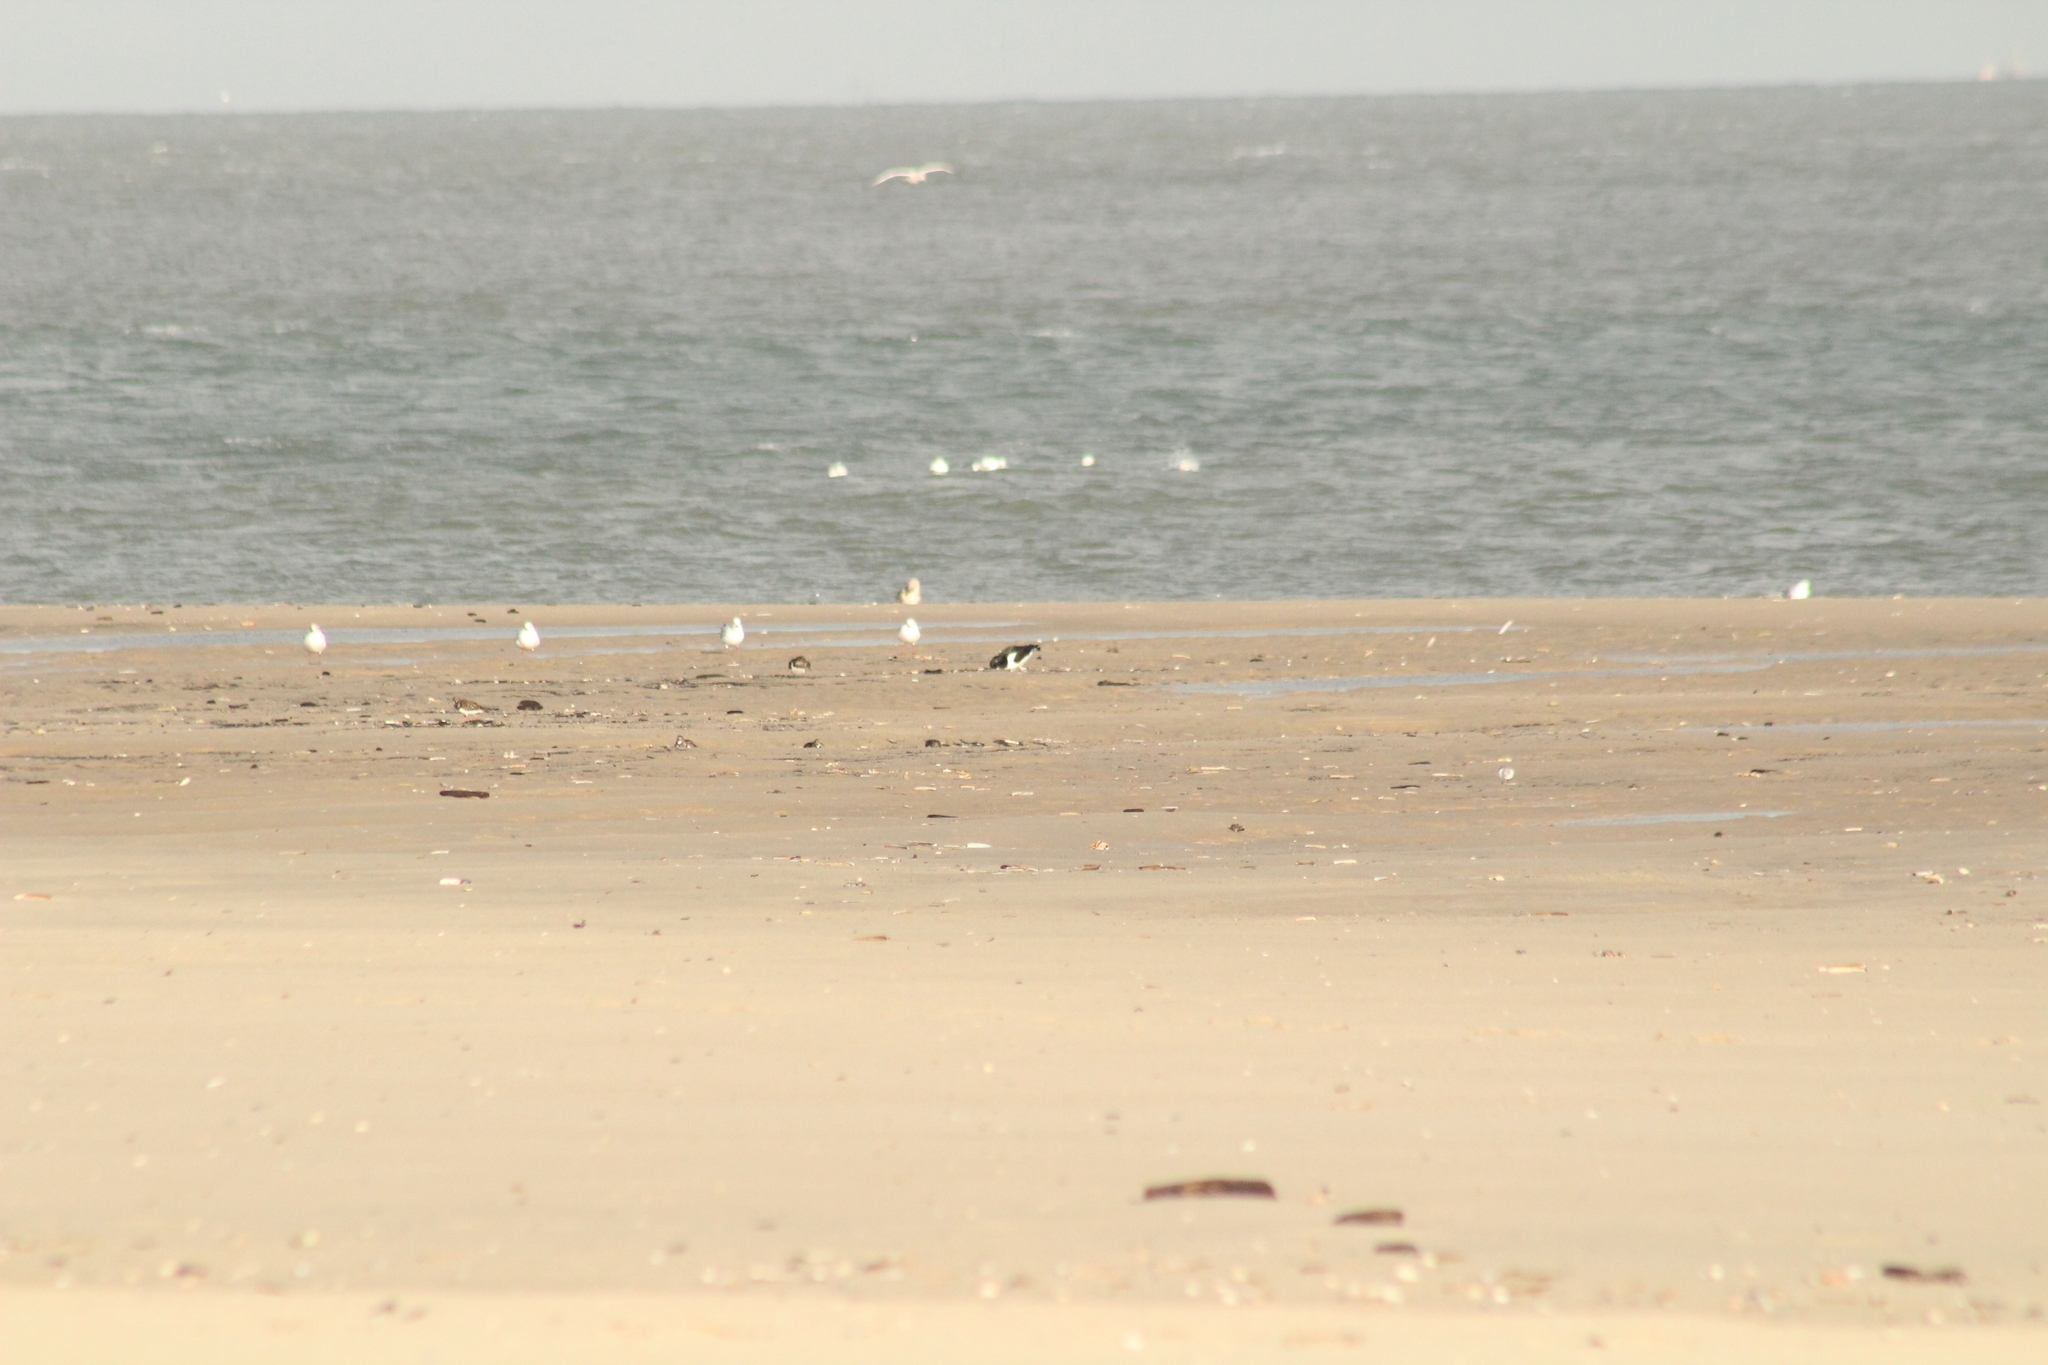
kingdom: Animalia
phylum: Chordata
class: Aves
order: Charadriiformes
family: Haematopodidae
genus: Haematopus
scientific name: Haematopus ostralegus
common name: Eurasian oystercatcher
